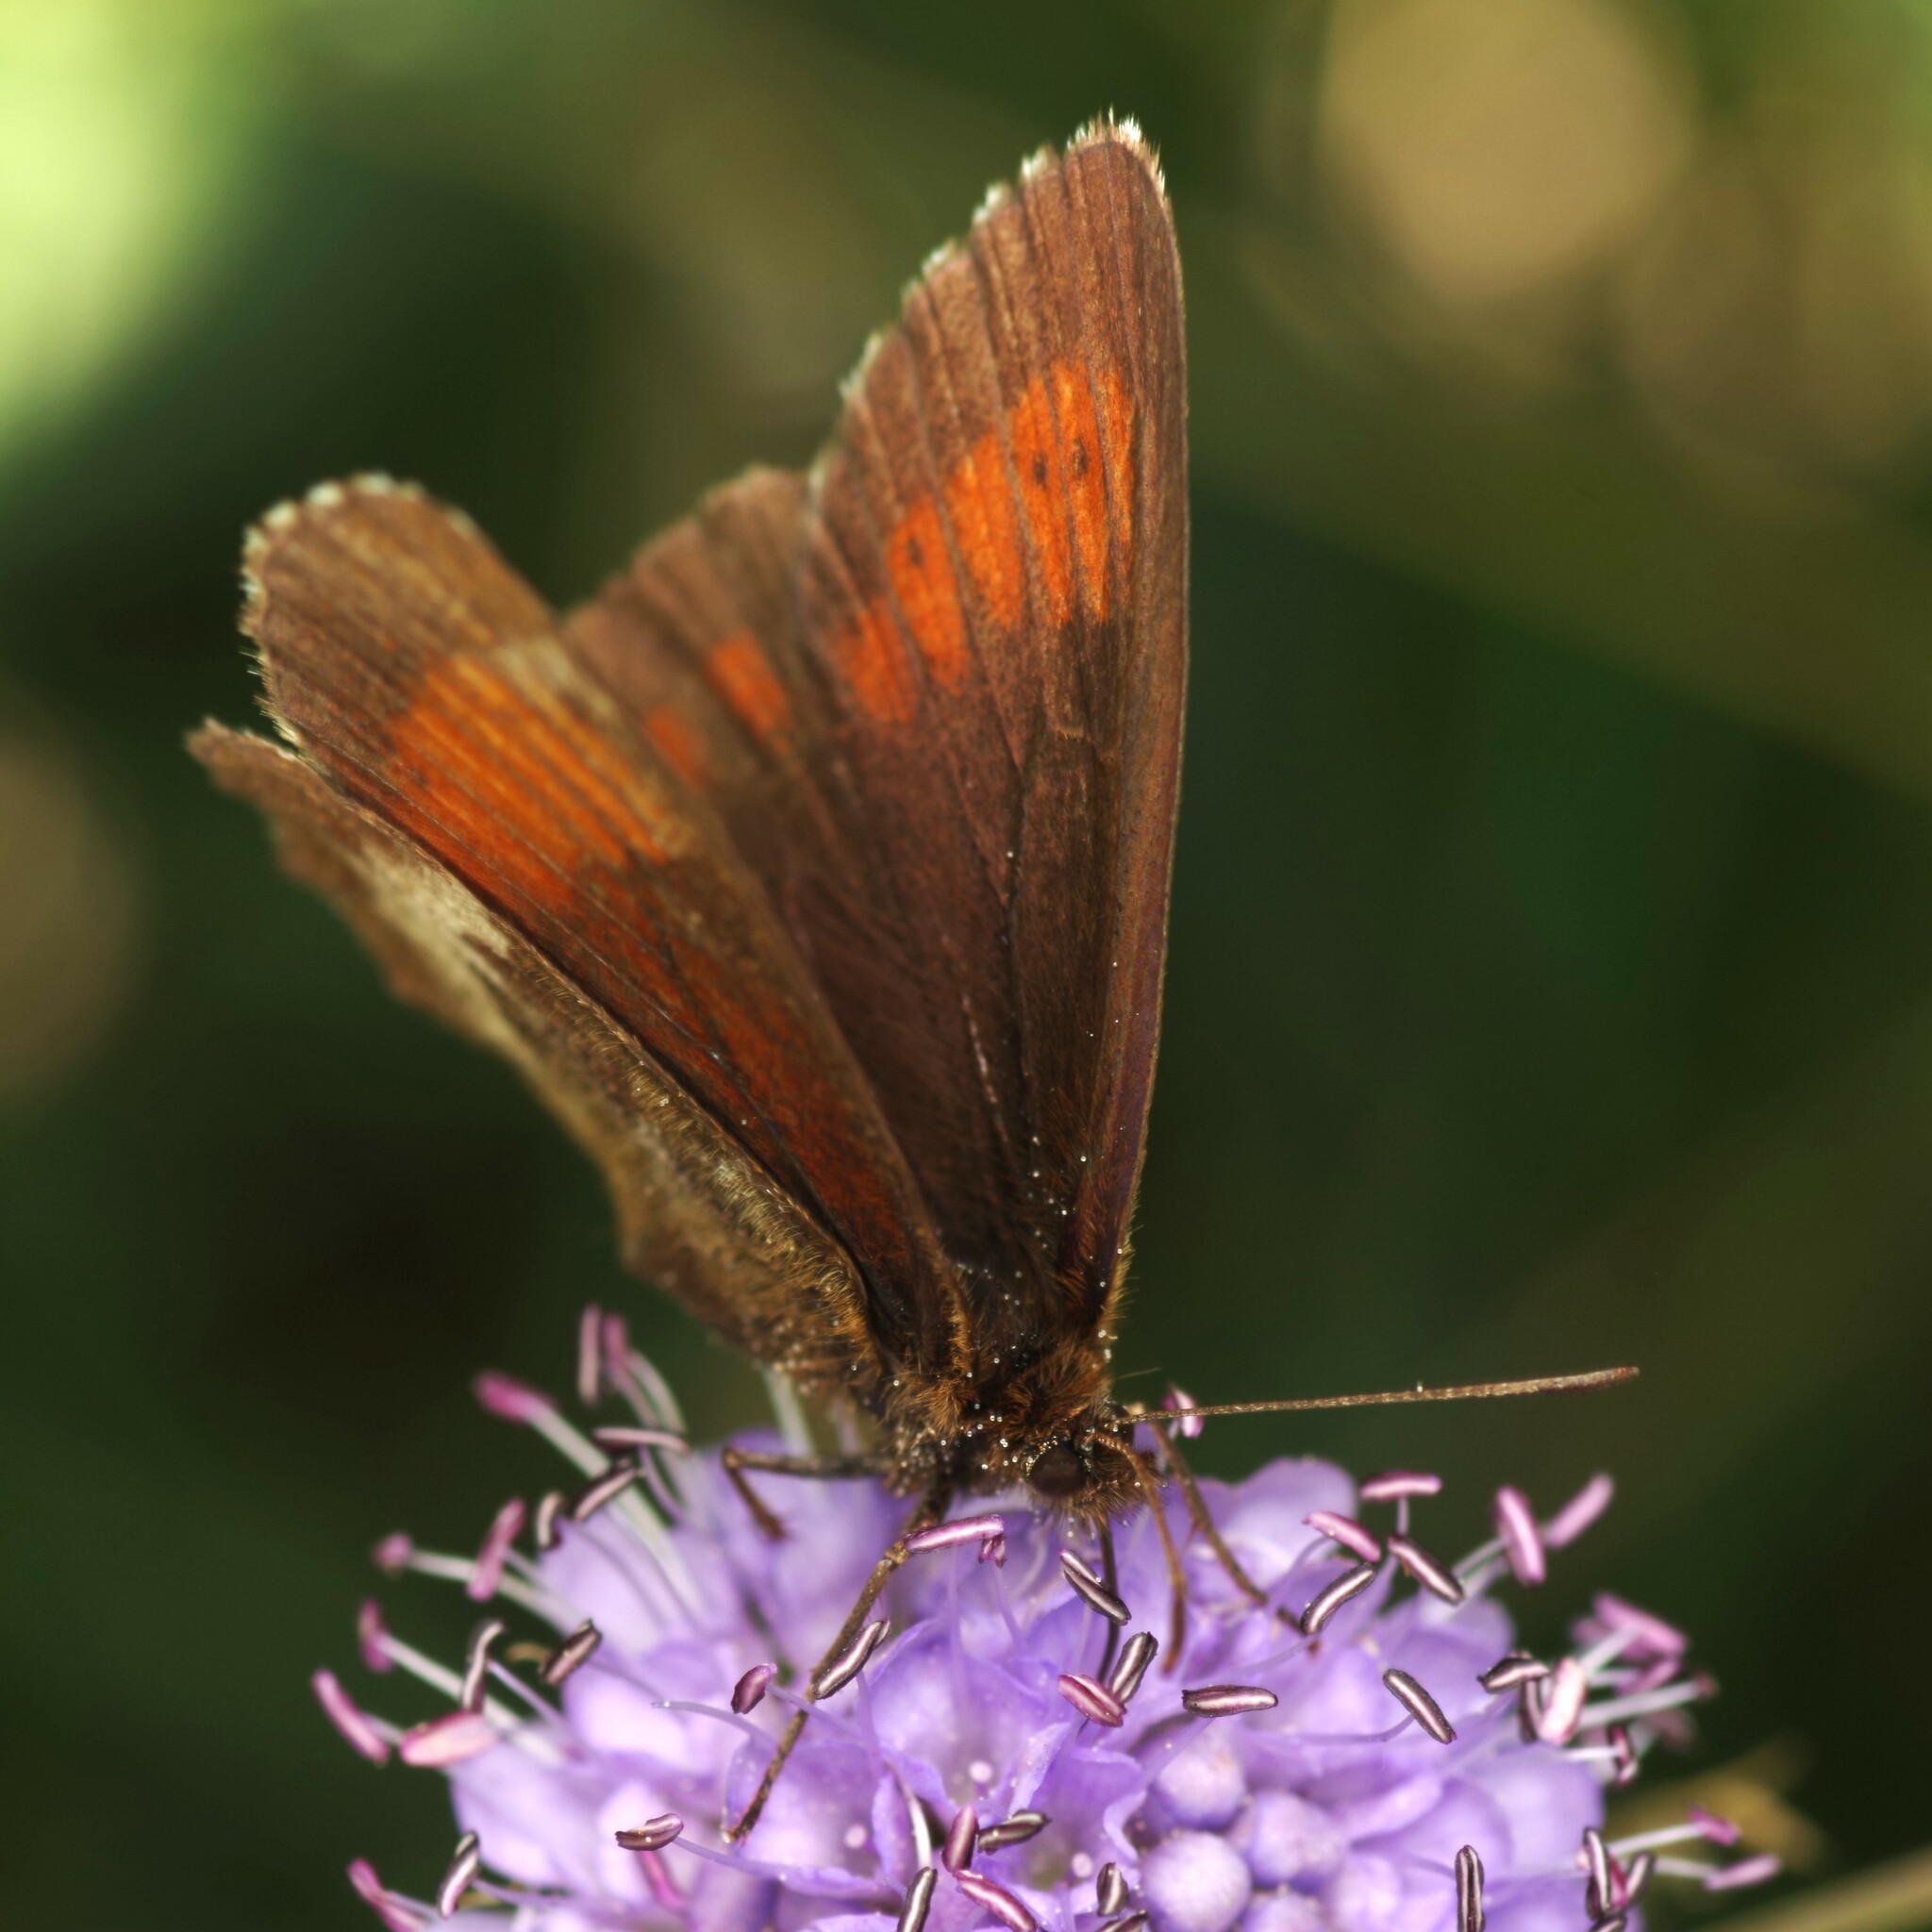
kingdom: Animalia
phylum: Arthropoda
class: Insecta
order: Lepidoptera
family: Nymphalidae
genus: Erebia
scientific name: Erebia euryale
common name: Large ringlet
